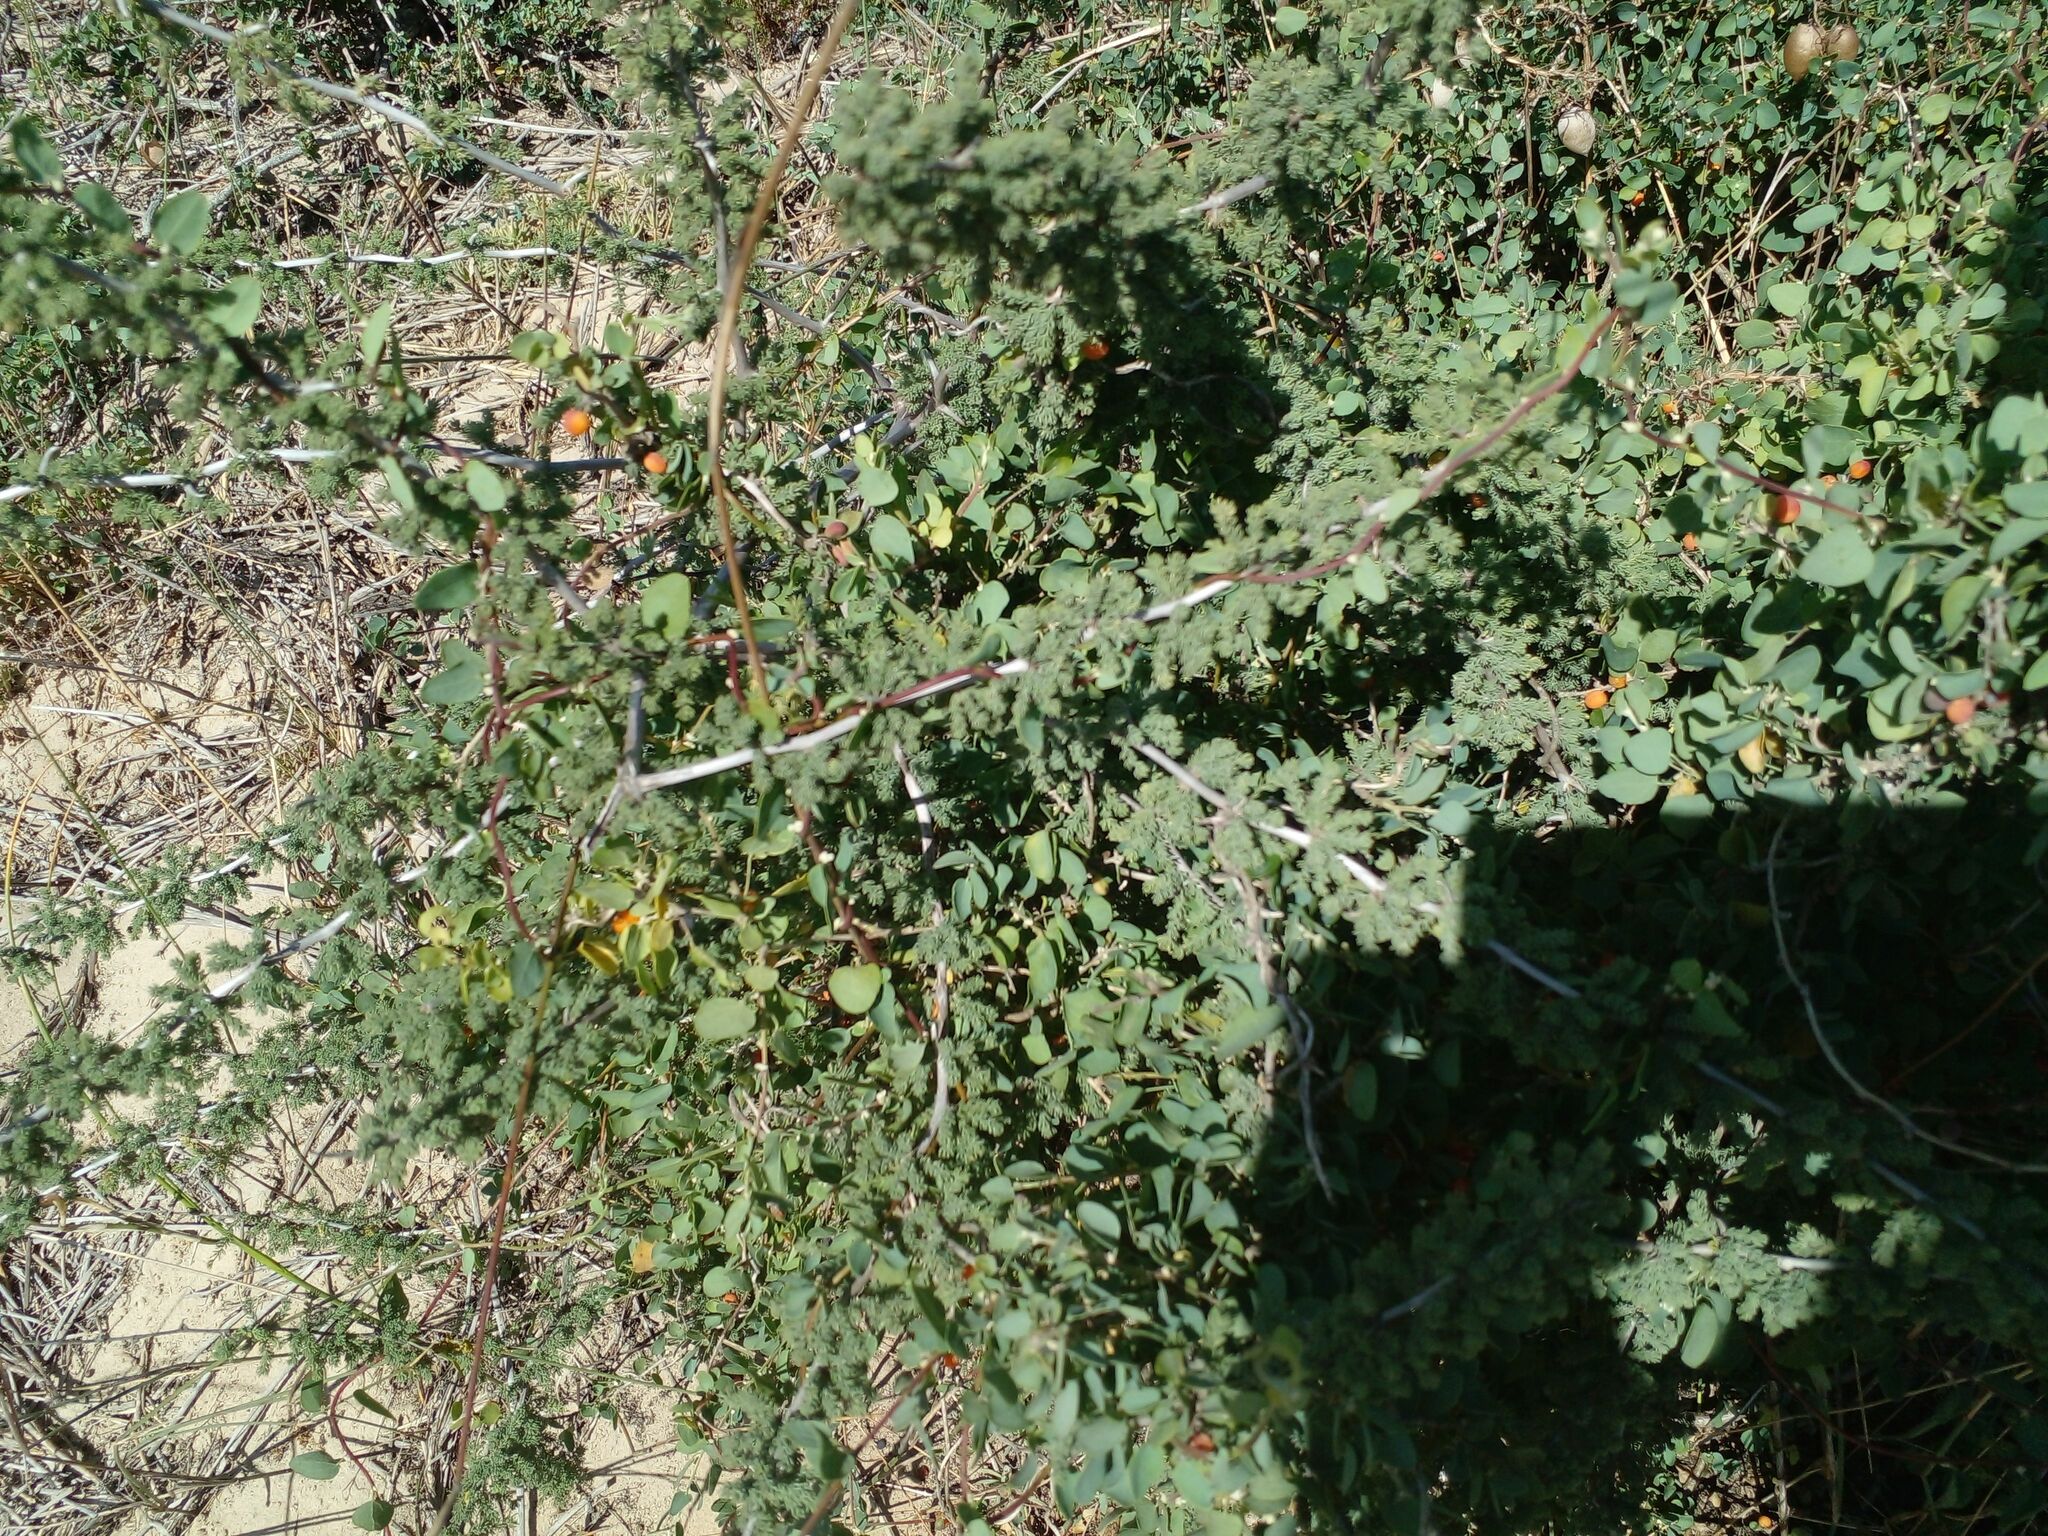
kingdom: Plantae
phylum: Tracheophyta
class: Liliopsida
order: Asparagales
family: Asparagaceae
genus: Asparagus
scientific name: Asparagus capensis
